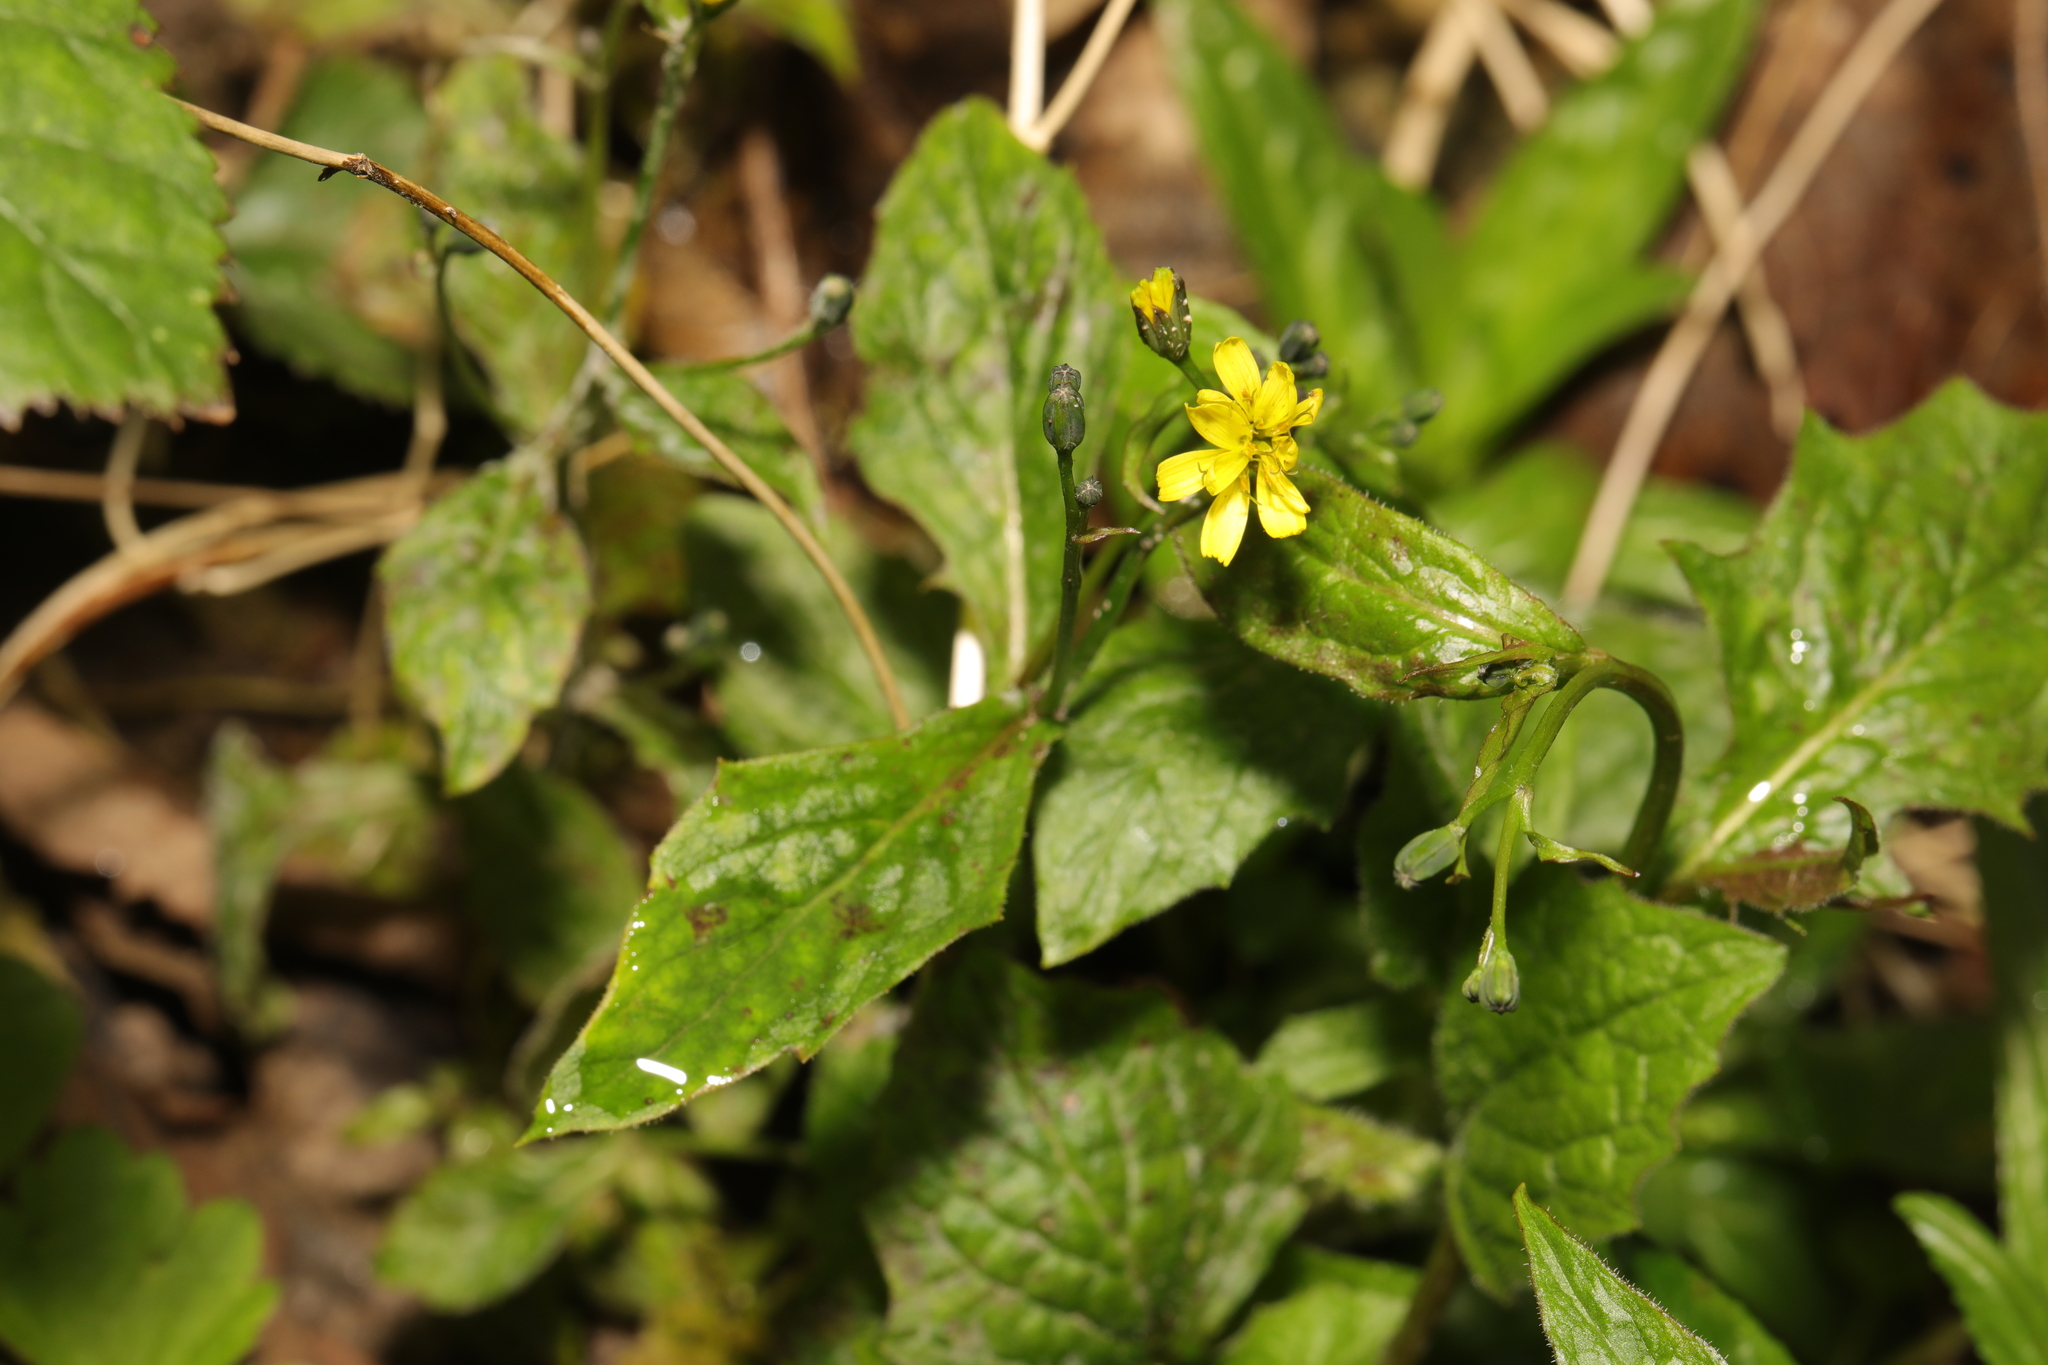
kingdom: Plantae
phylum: Tracheophyta
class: Magnoliopsida
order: Asterales
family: Asteraceae
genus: Lapsana
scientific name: Lapsana communis
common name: Nipplewort
